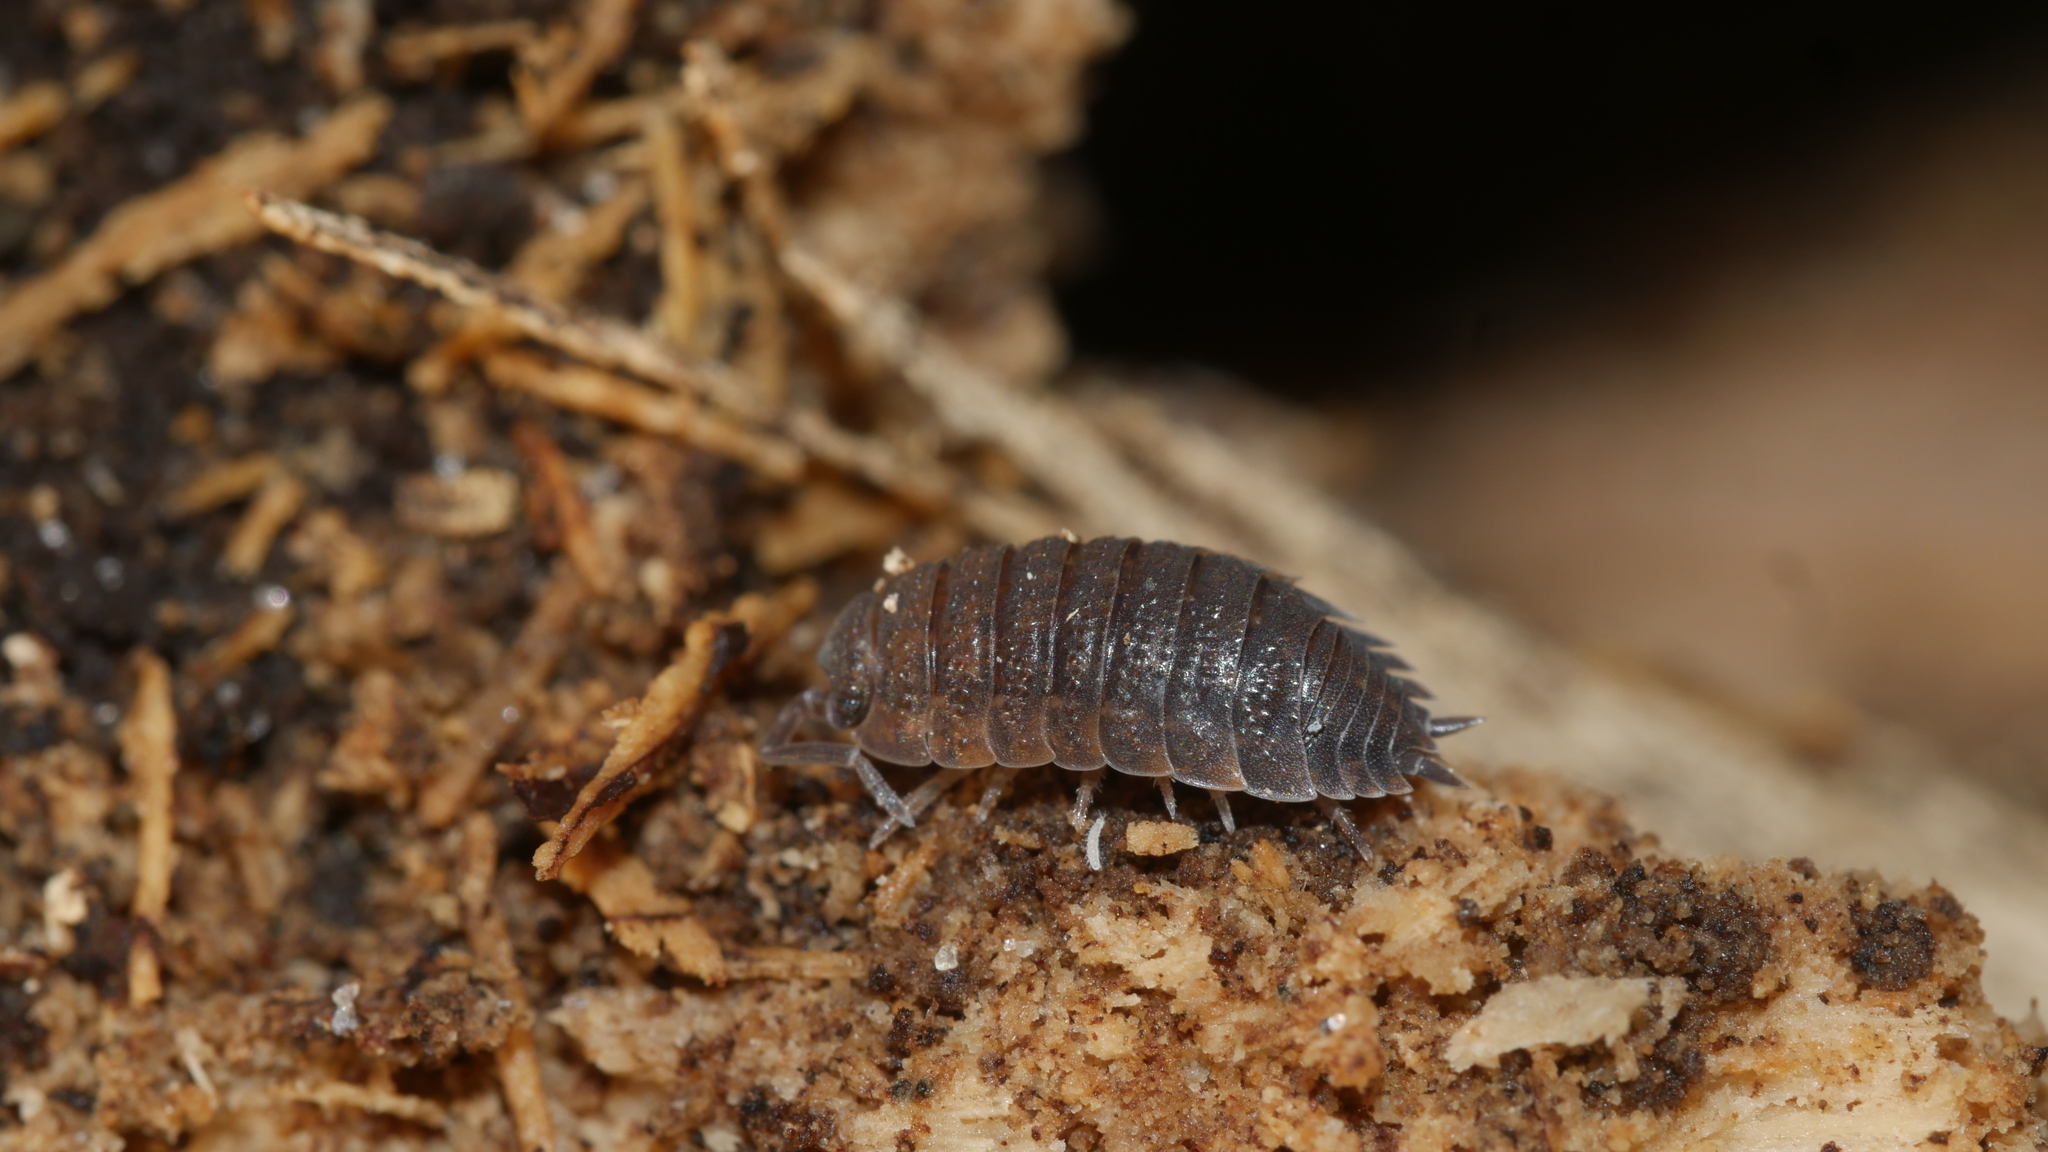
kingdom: Animalia
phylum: Arthropoda
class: Malacostraca
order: Isopoda
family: Porcellionidae
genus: Porcellio
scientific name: Porcellio scaber
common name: Common rough woodlouse
